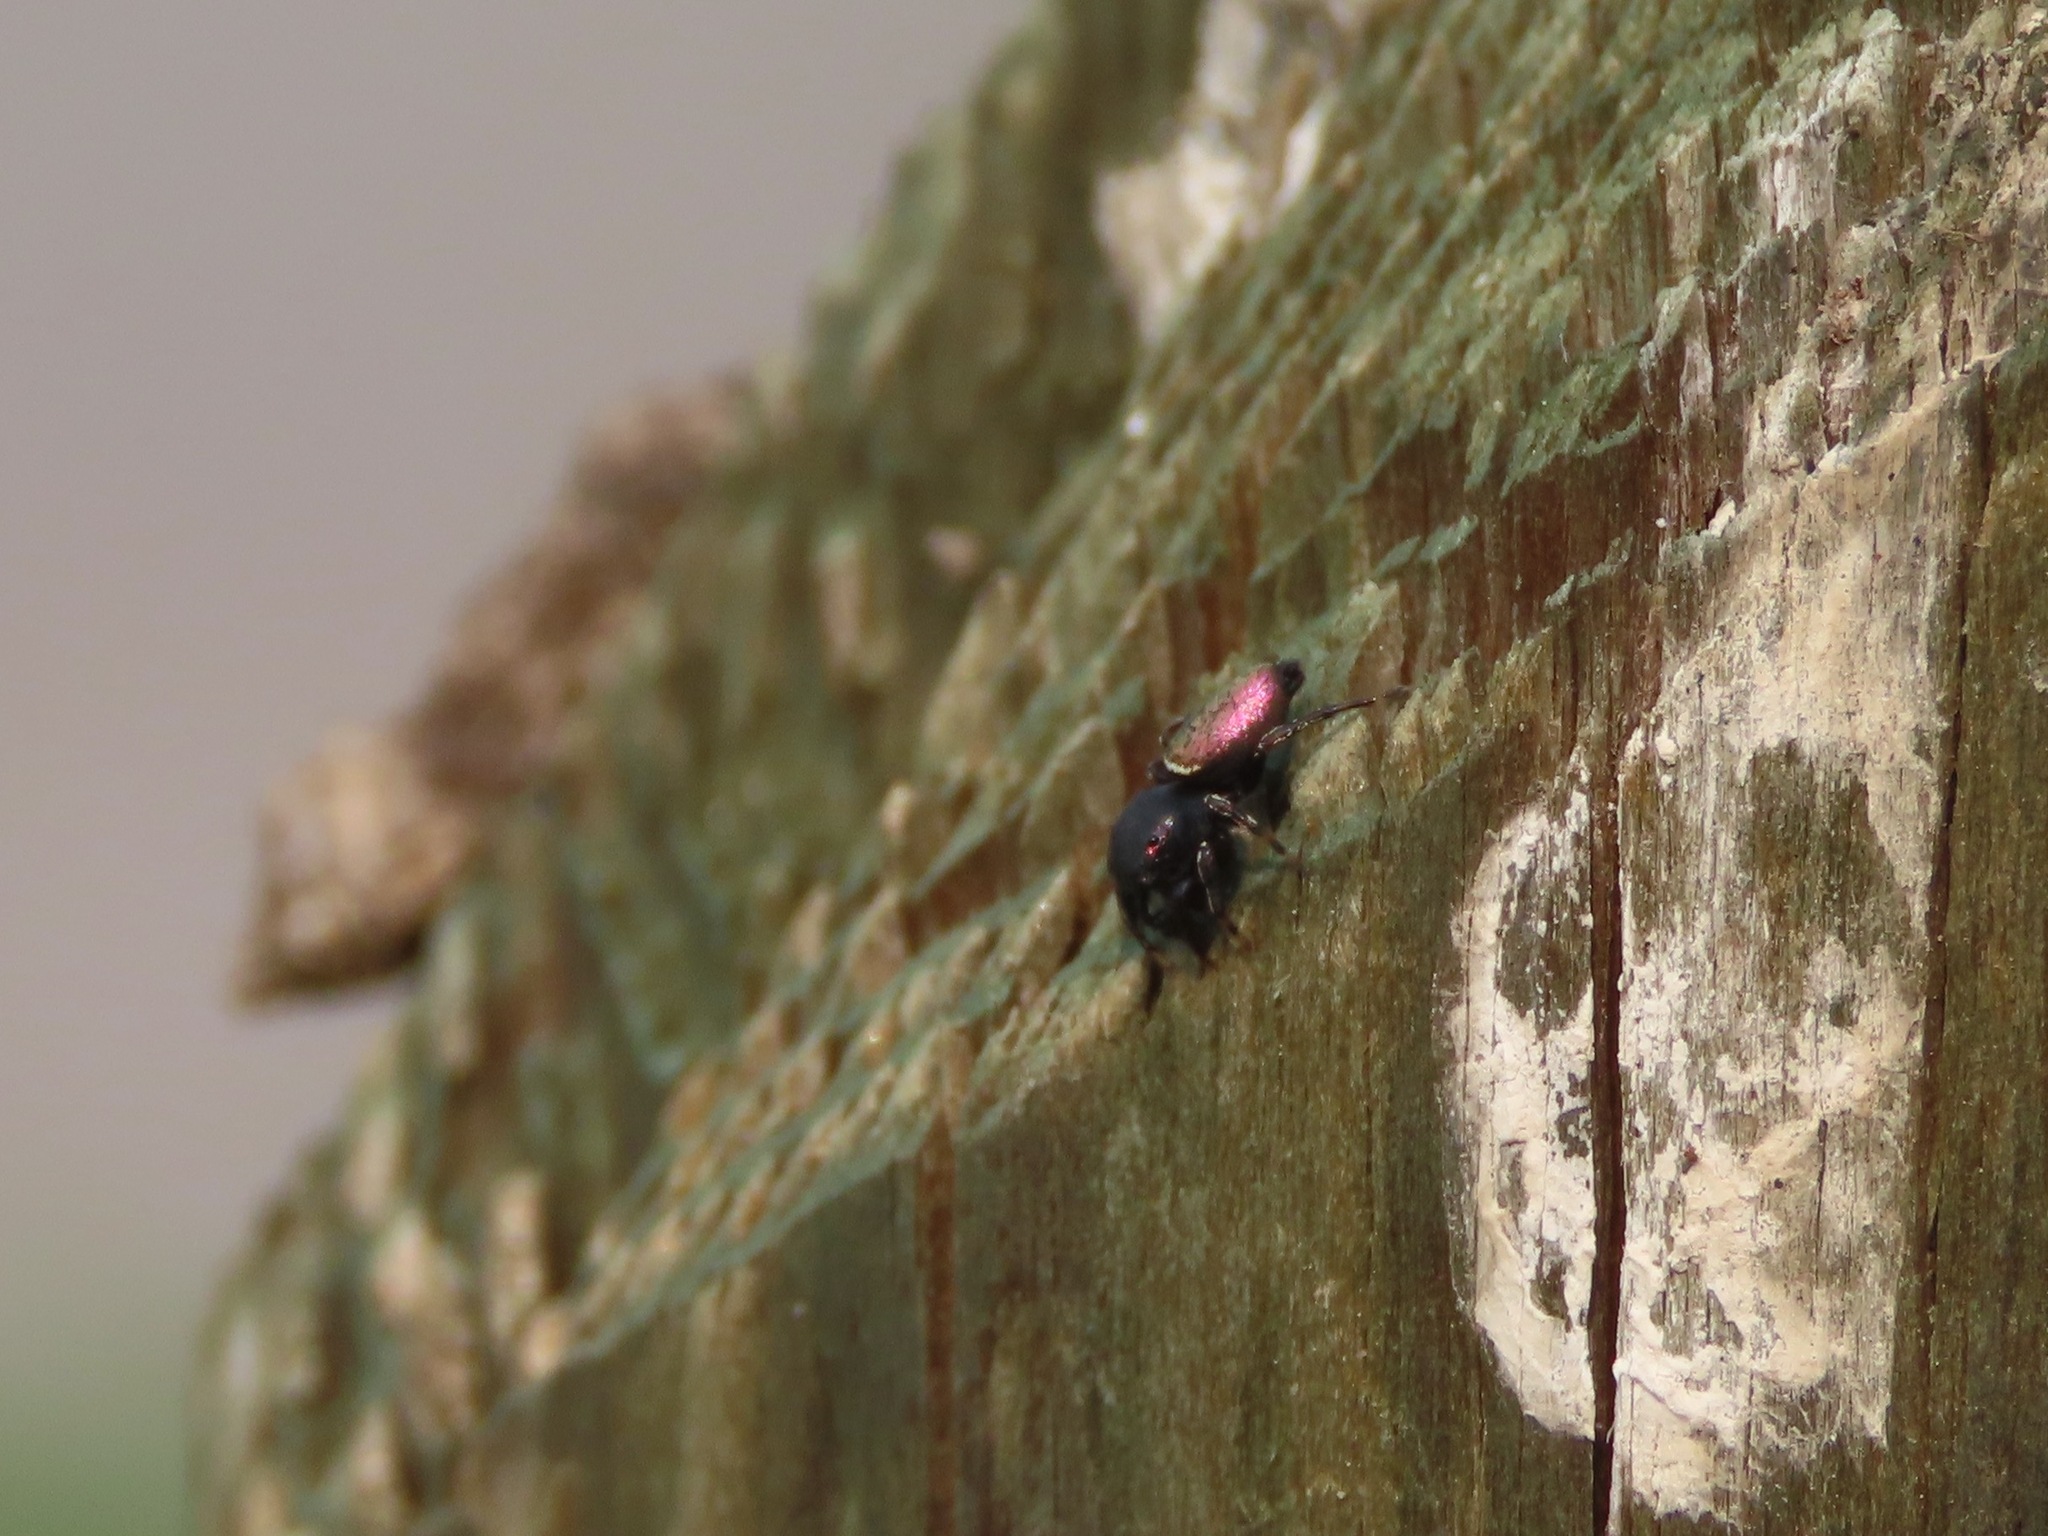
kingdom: Animalia
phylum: Arthropoda
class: Arachnida
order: Araneae
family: Salticidae
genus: Sassacus
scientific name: Sassacus papenhoei
